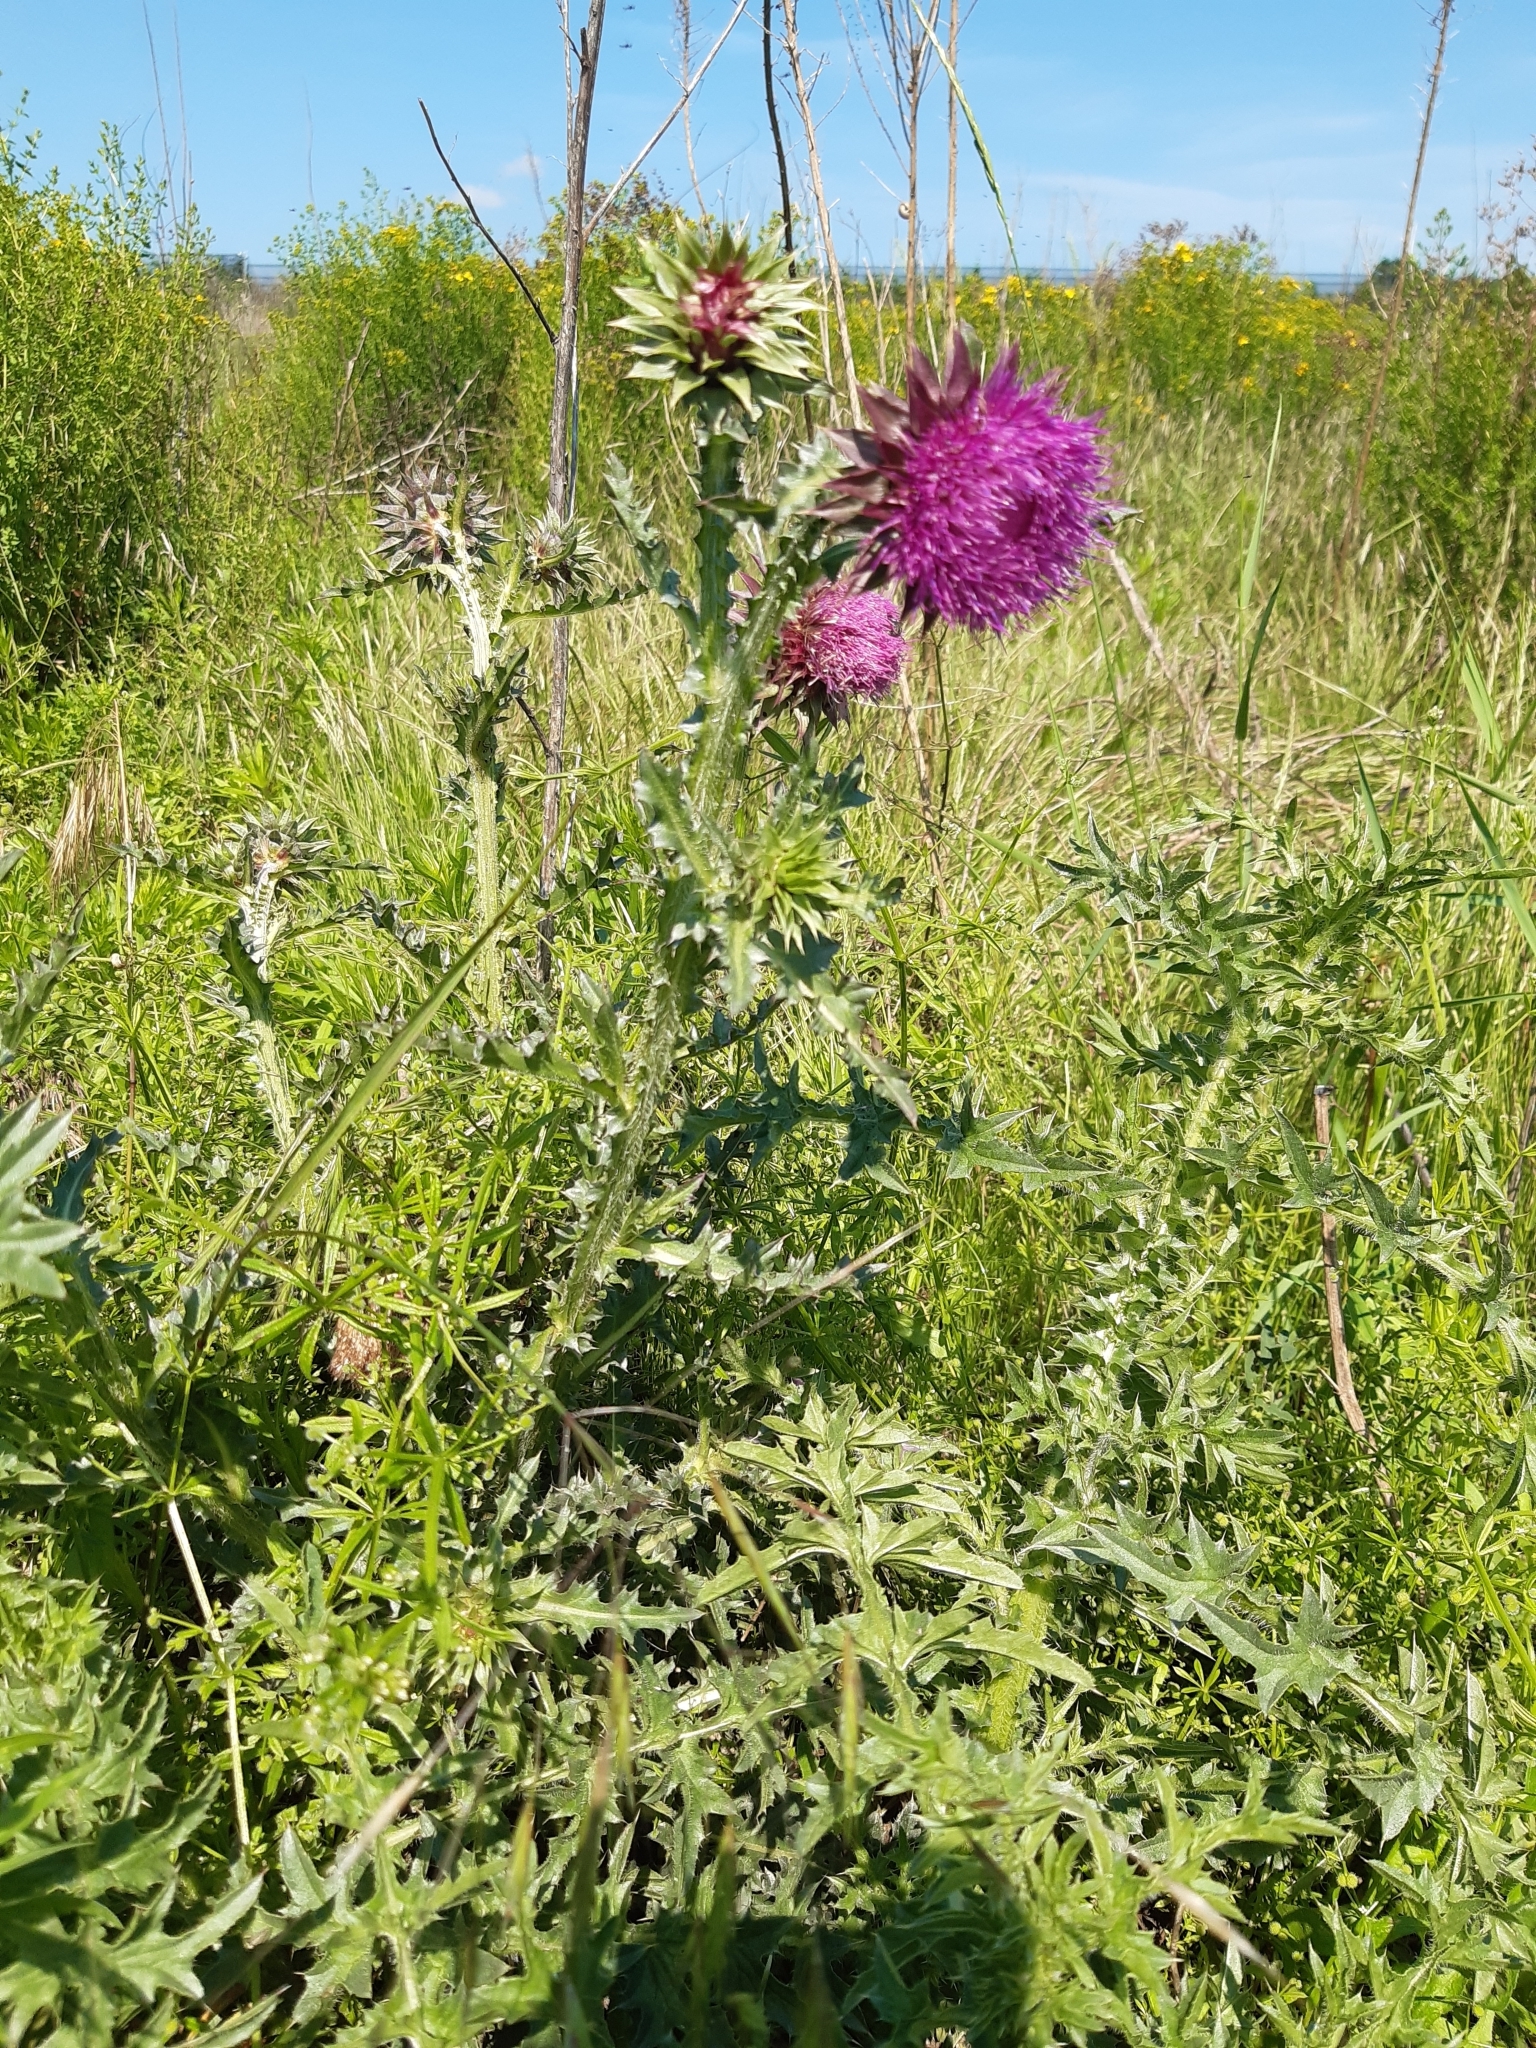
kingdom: Plantae
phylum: Tracheophyta
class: Magnoliopsida
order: Asterales
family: Asteraceae
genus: Carduus
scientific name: Carduus nutans
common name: Musk thistle
